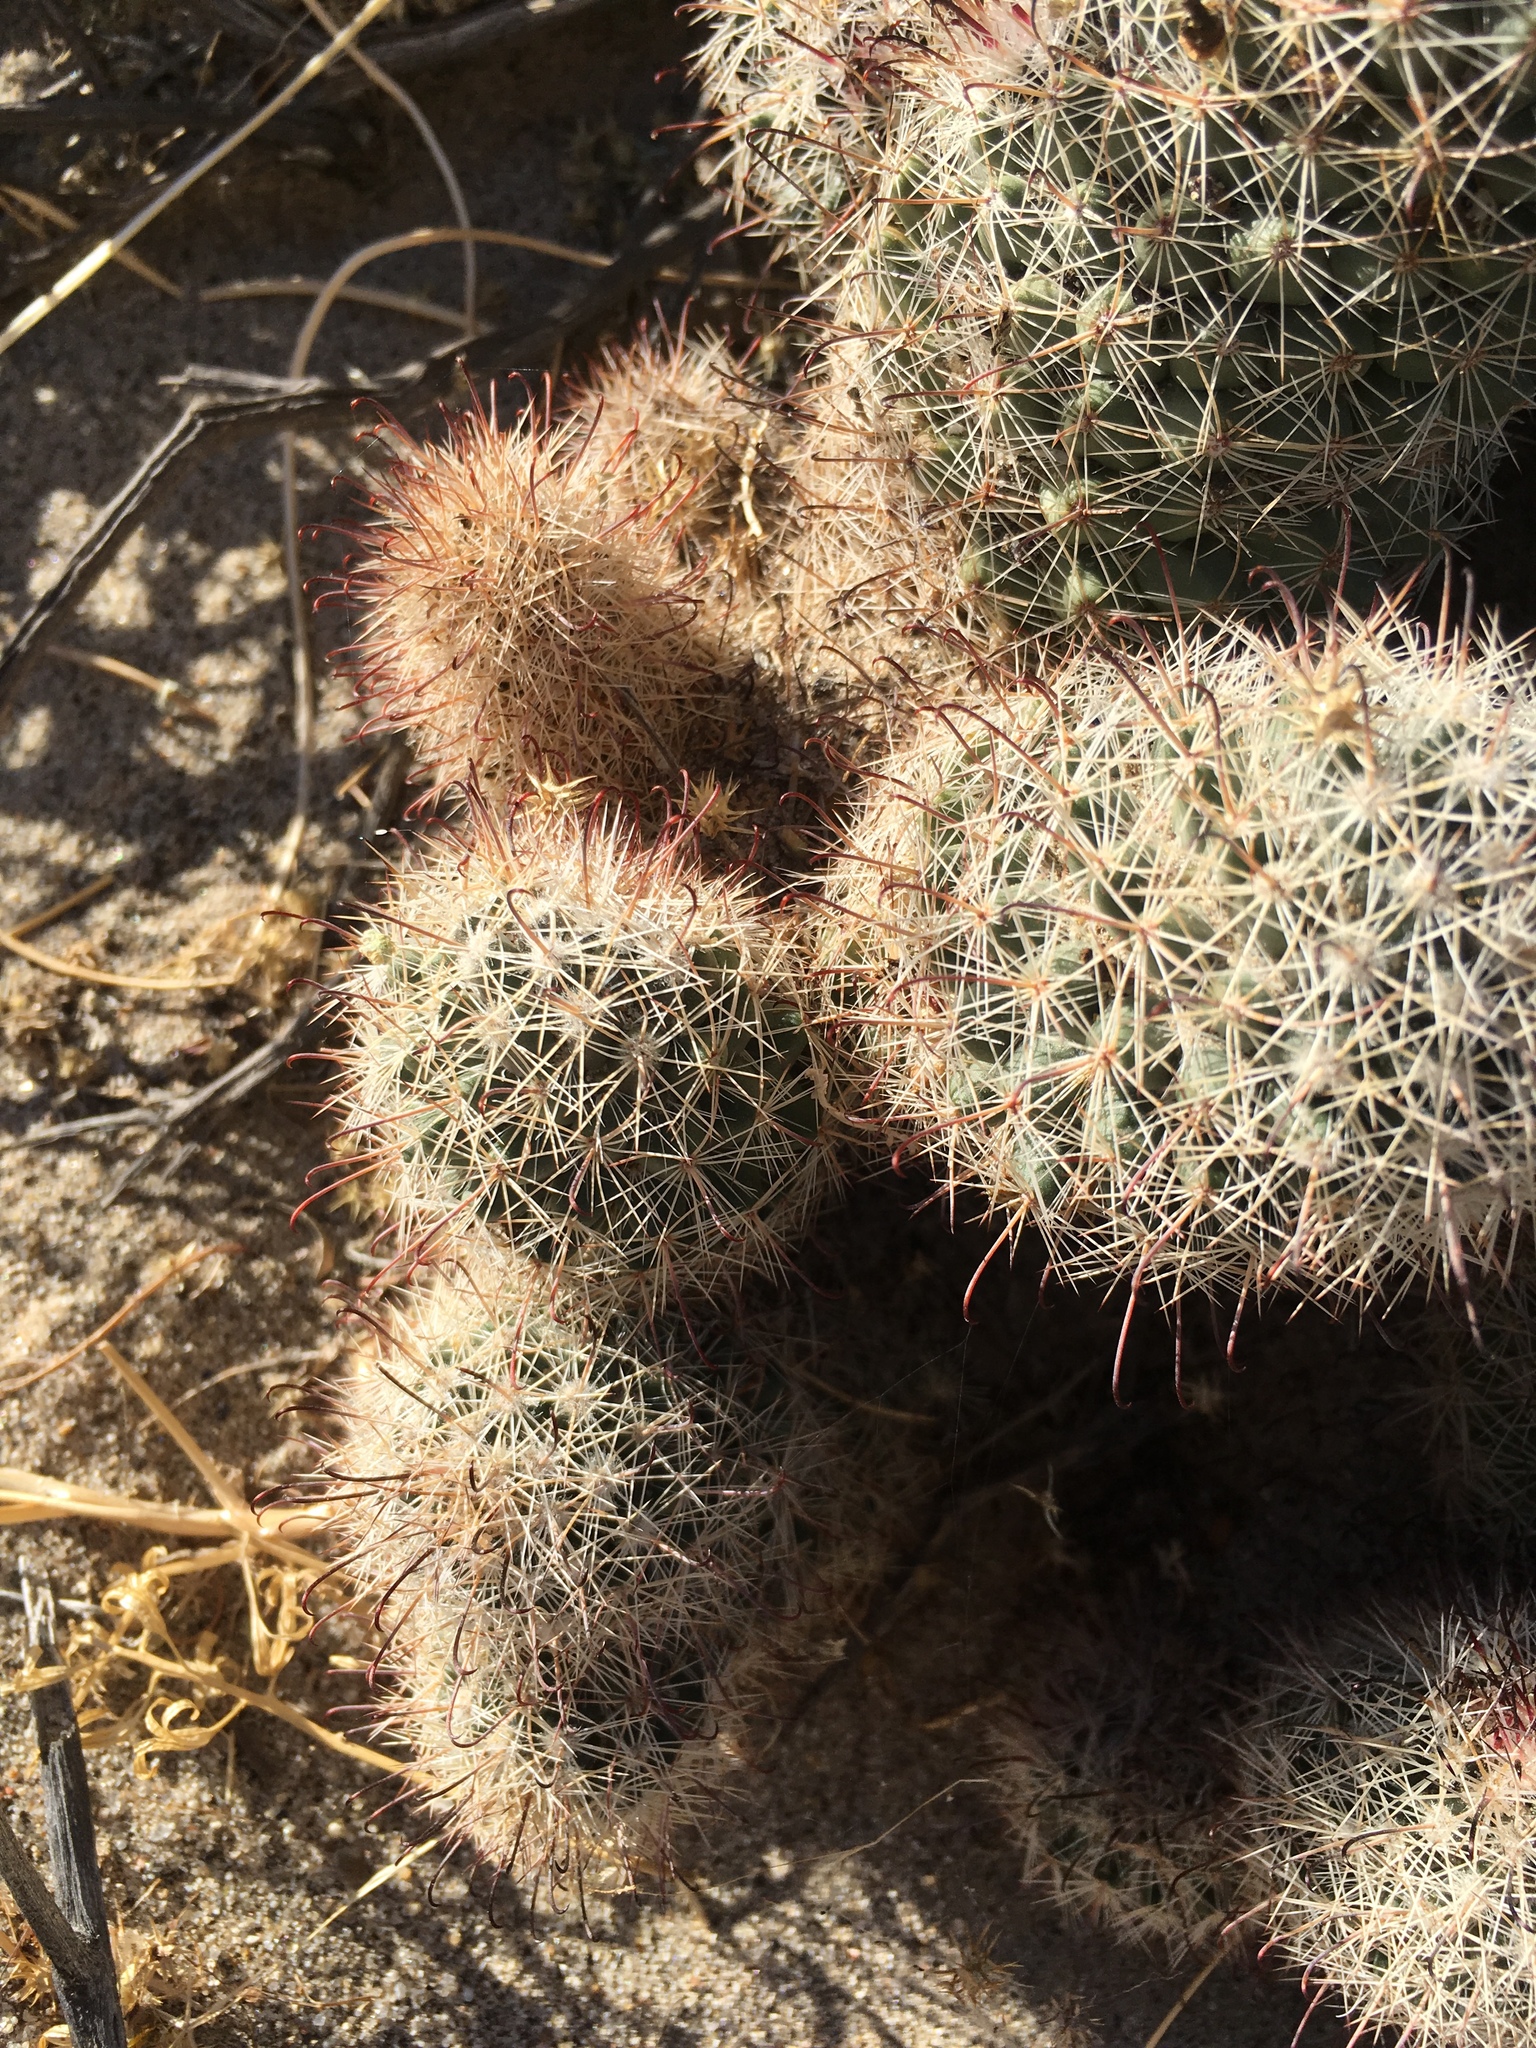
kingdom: Plantae
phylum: Tracheophyta
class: Magnoliopsida
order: Caryophyllales
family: Cactaceae
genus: Cochemiea
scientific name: Cochemiea dioica
